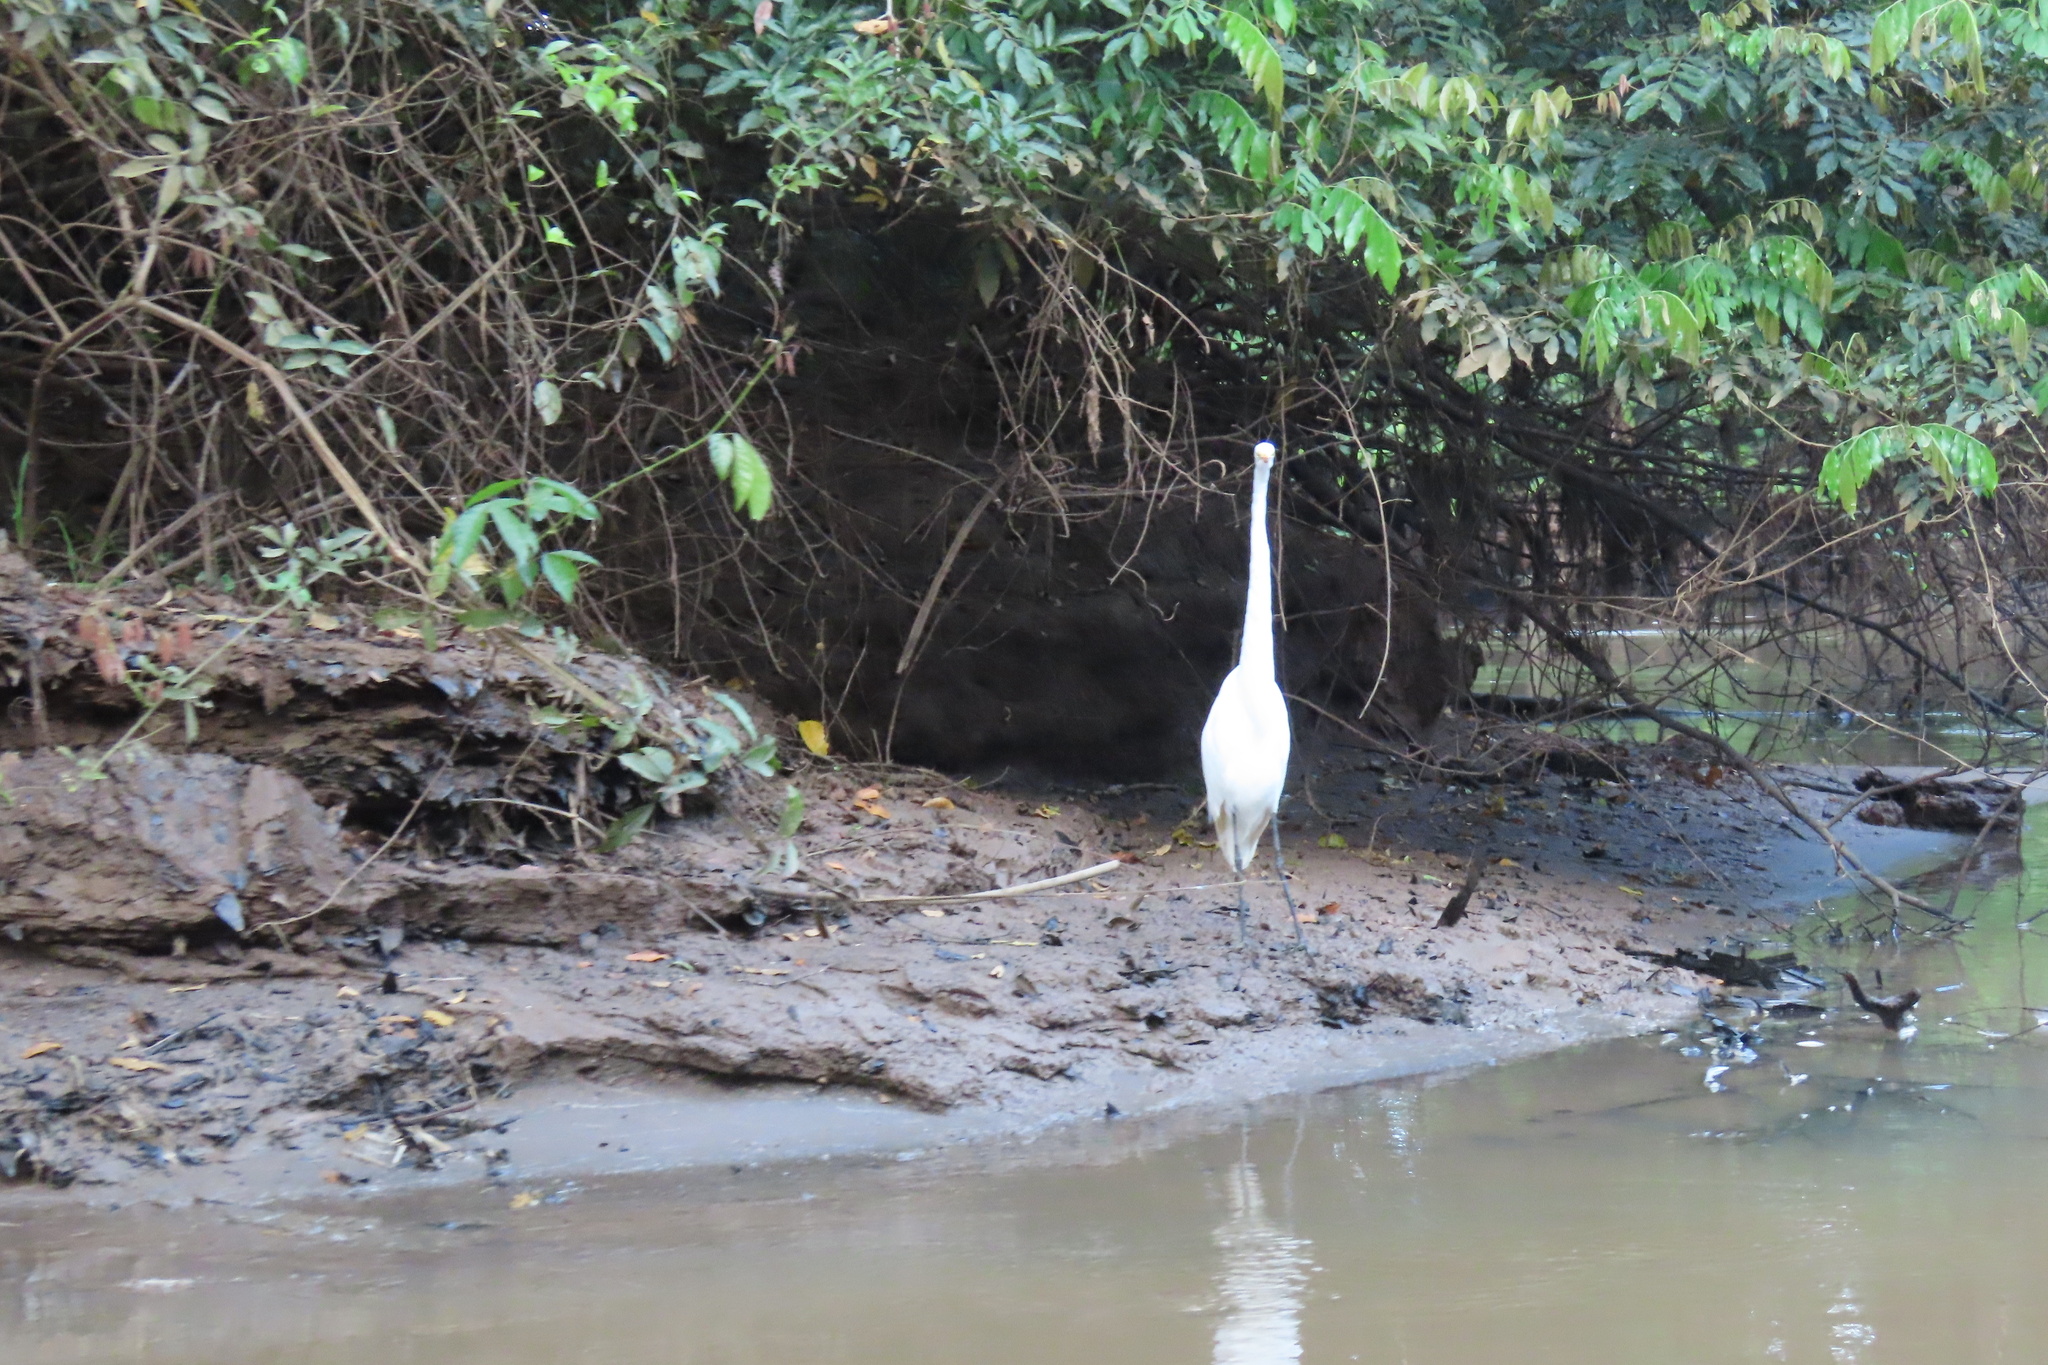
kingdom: Animalia
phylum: Chordata
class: Aves
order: Pelecaniformes
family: Ardeidae
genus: Ardea
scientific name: Ardea alba
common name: Great egret
